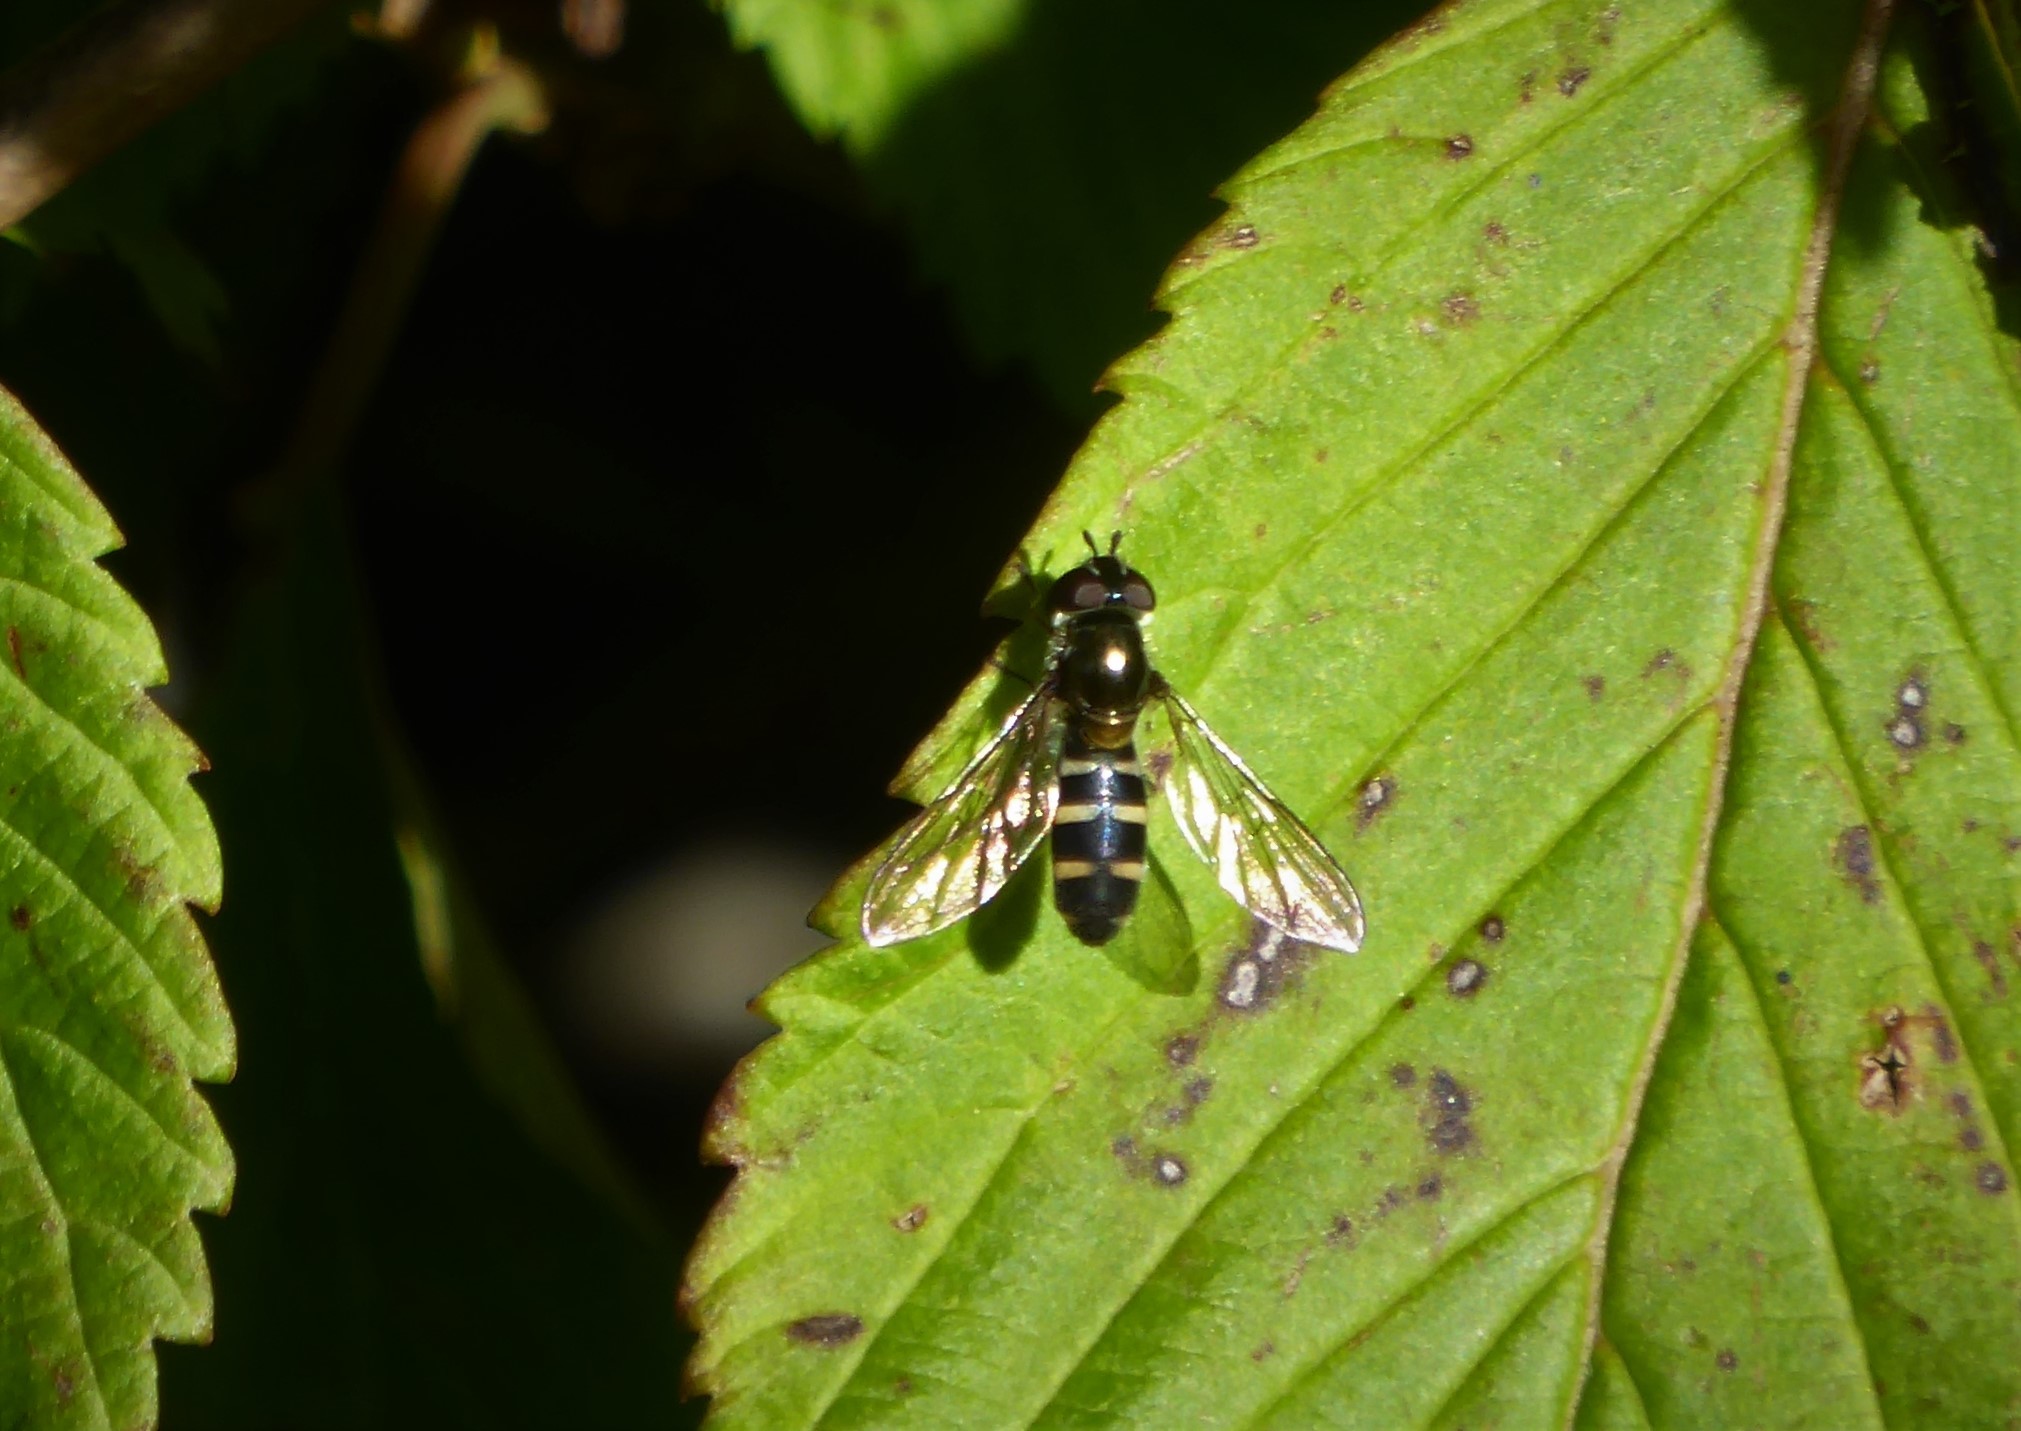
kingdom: Animalia
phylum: Arthropoda
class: Insecta
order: Diptera
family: Syrphidae
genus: Melangyna
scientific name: Melangyna novaezelandiae
